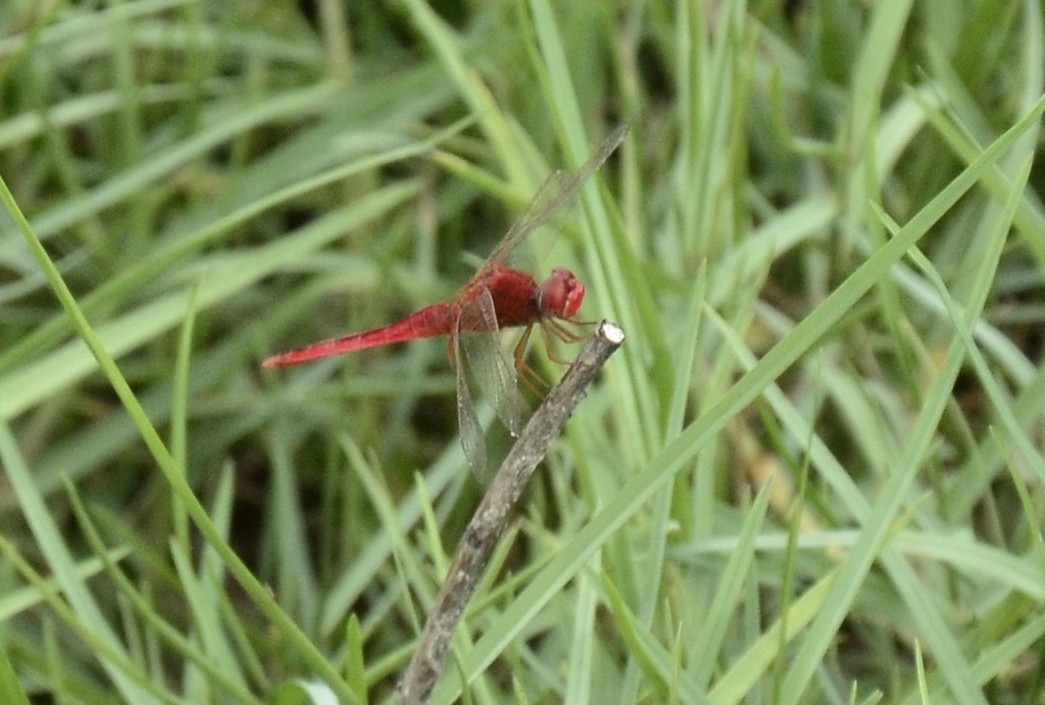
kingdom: Animalia
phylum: Arthropoda
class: Insecta
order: Odonata
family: Libellulidae
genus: Crocothemis
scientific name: Crocothemis servilia
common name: Scarlet skimmer
